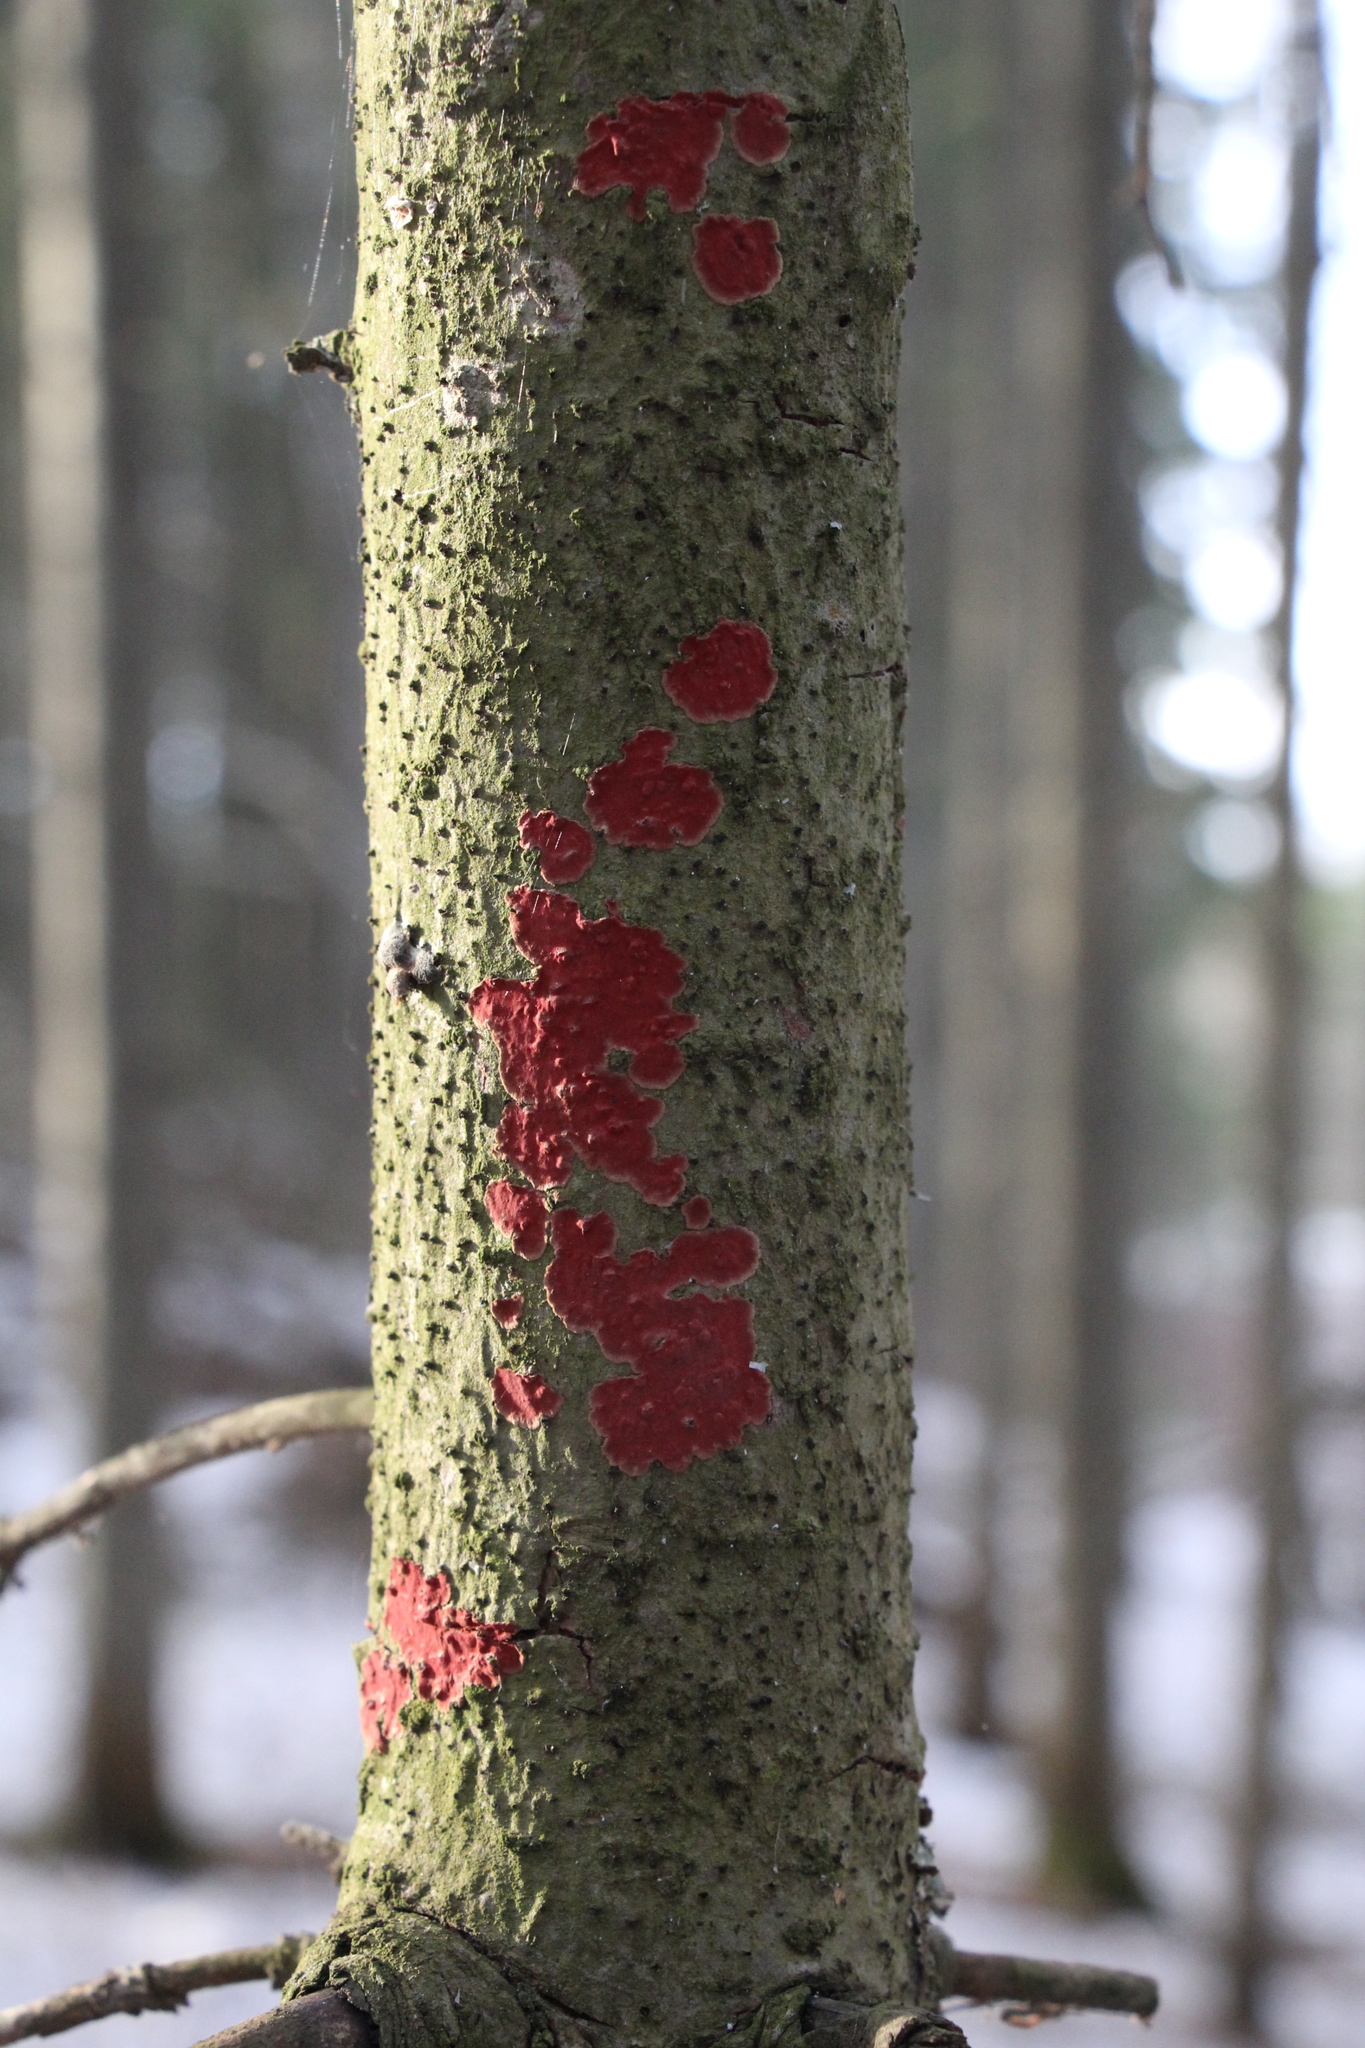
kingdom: Fungi
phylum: Basidiomycota
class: Agaricomycetes
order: Hymenochaetales
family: Hymenochaetaceae
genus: Hymenochaete
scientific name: Hymenochaete cruenta
